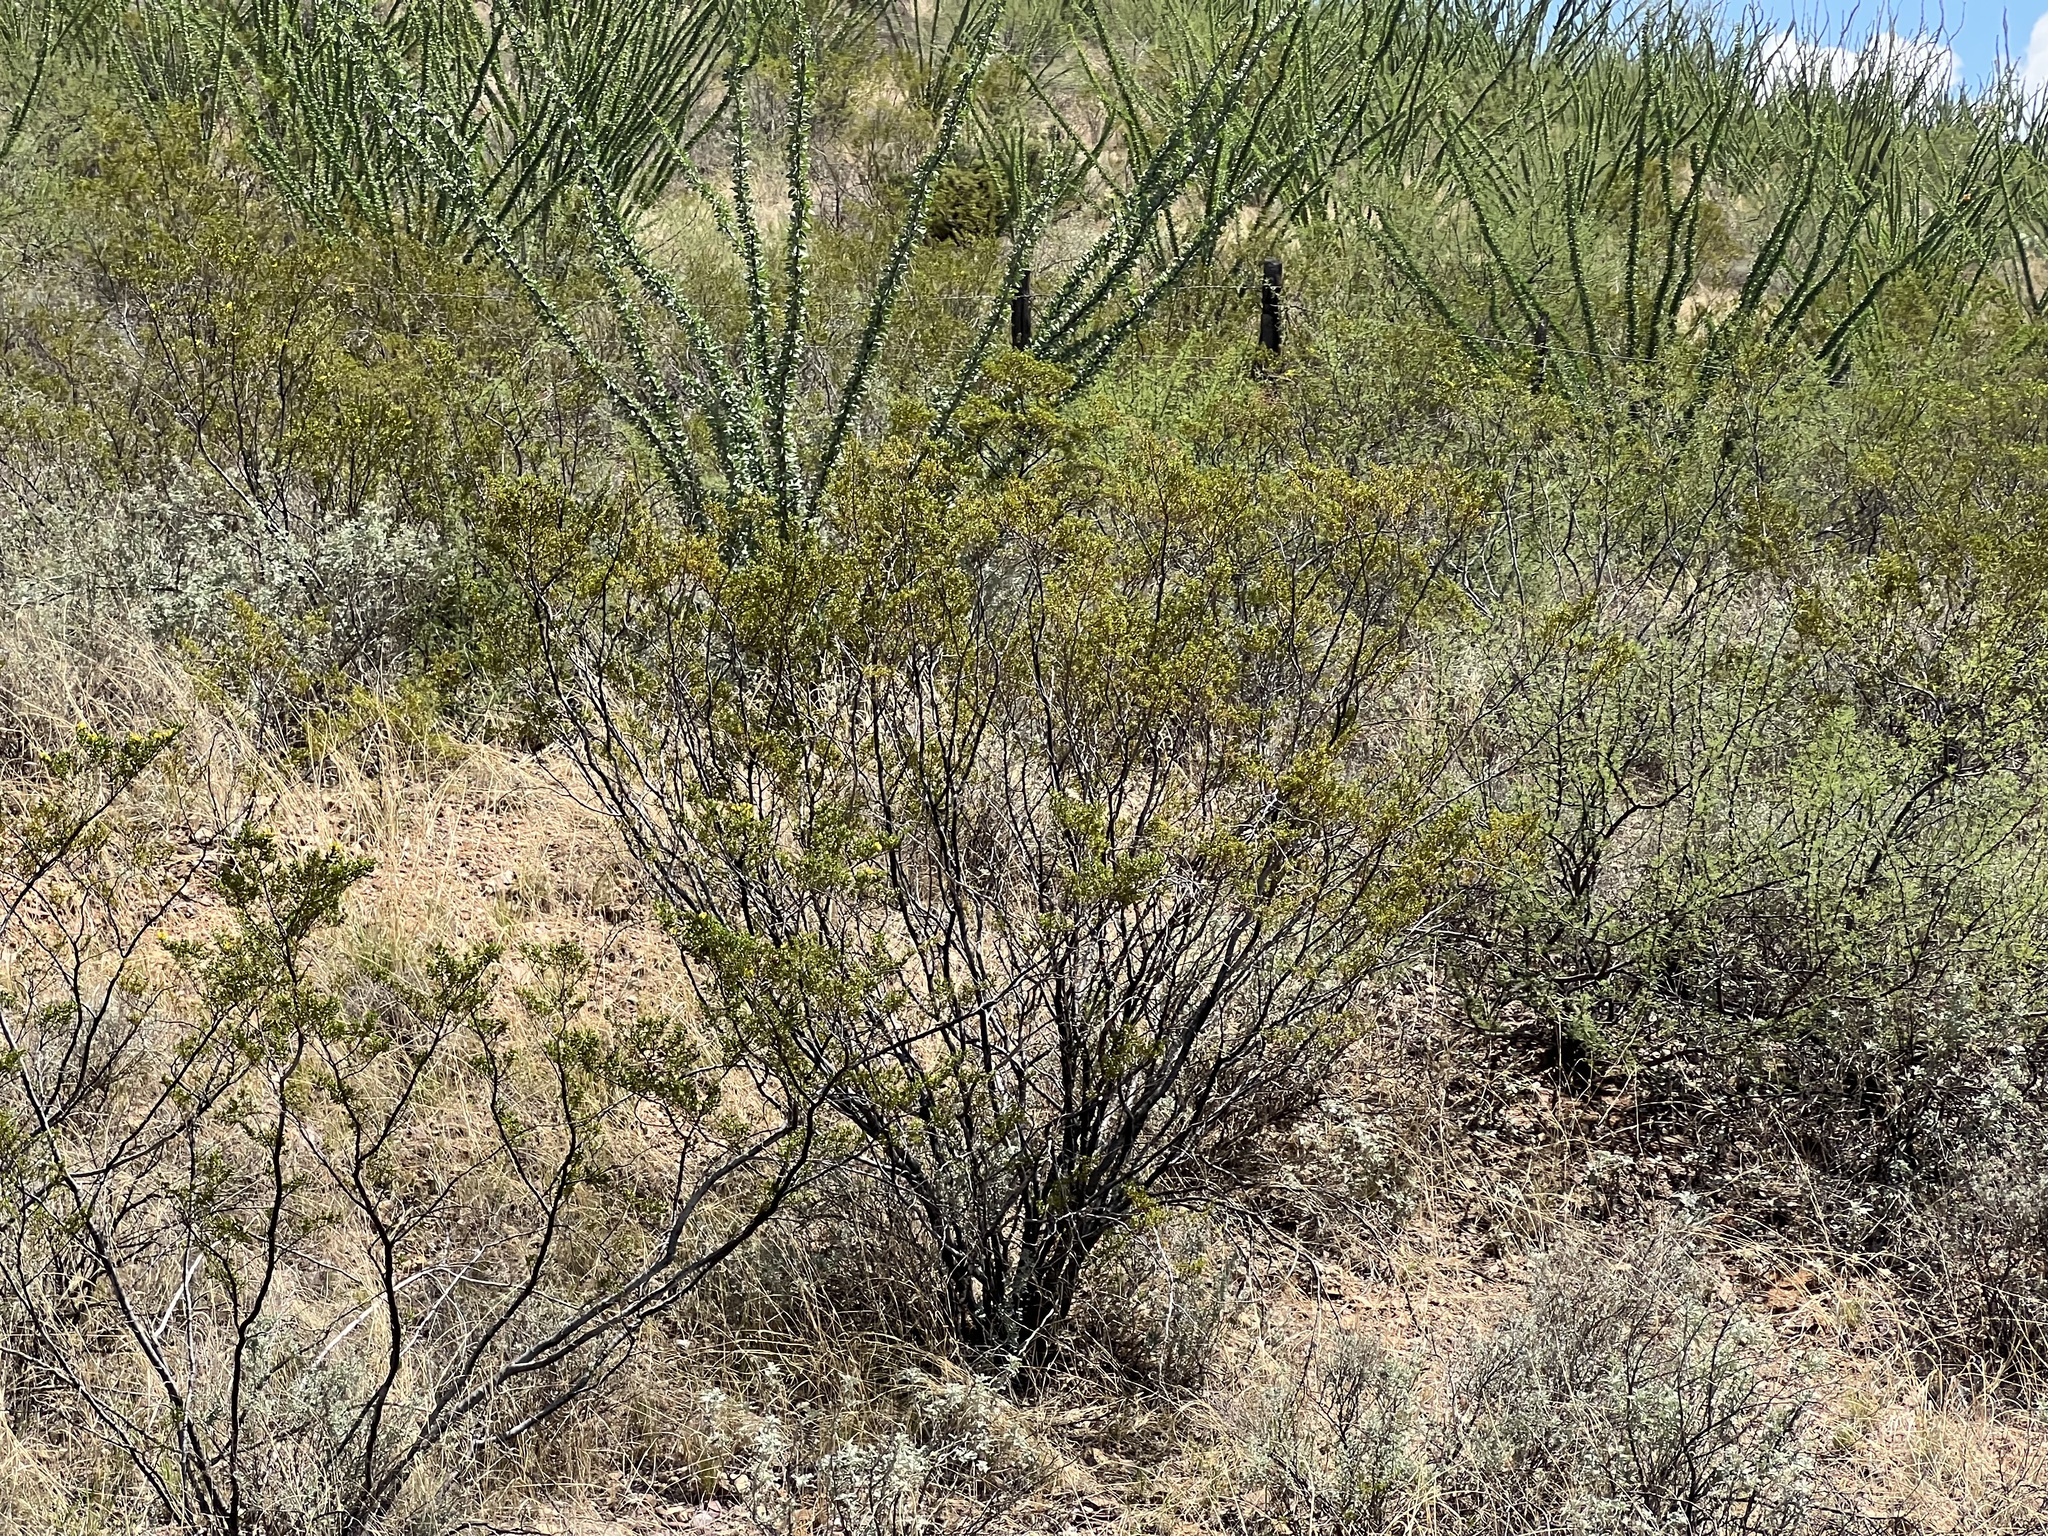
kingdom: Plantae
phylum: Tracheophyta
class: Magnoliopsida
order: Zygophyllales
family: Zygophyllaceae
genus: Larrea
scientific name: Larrea tridentata
